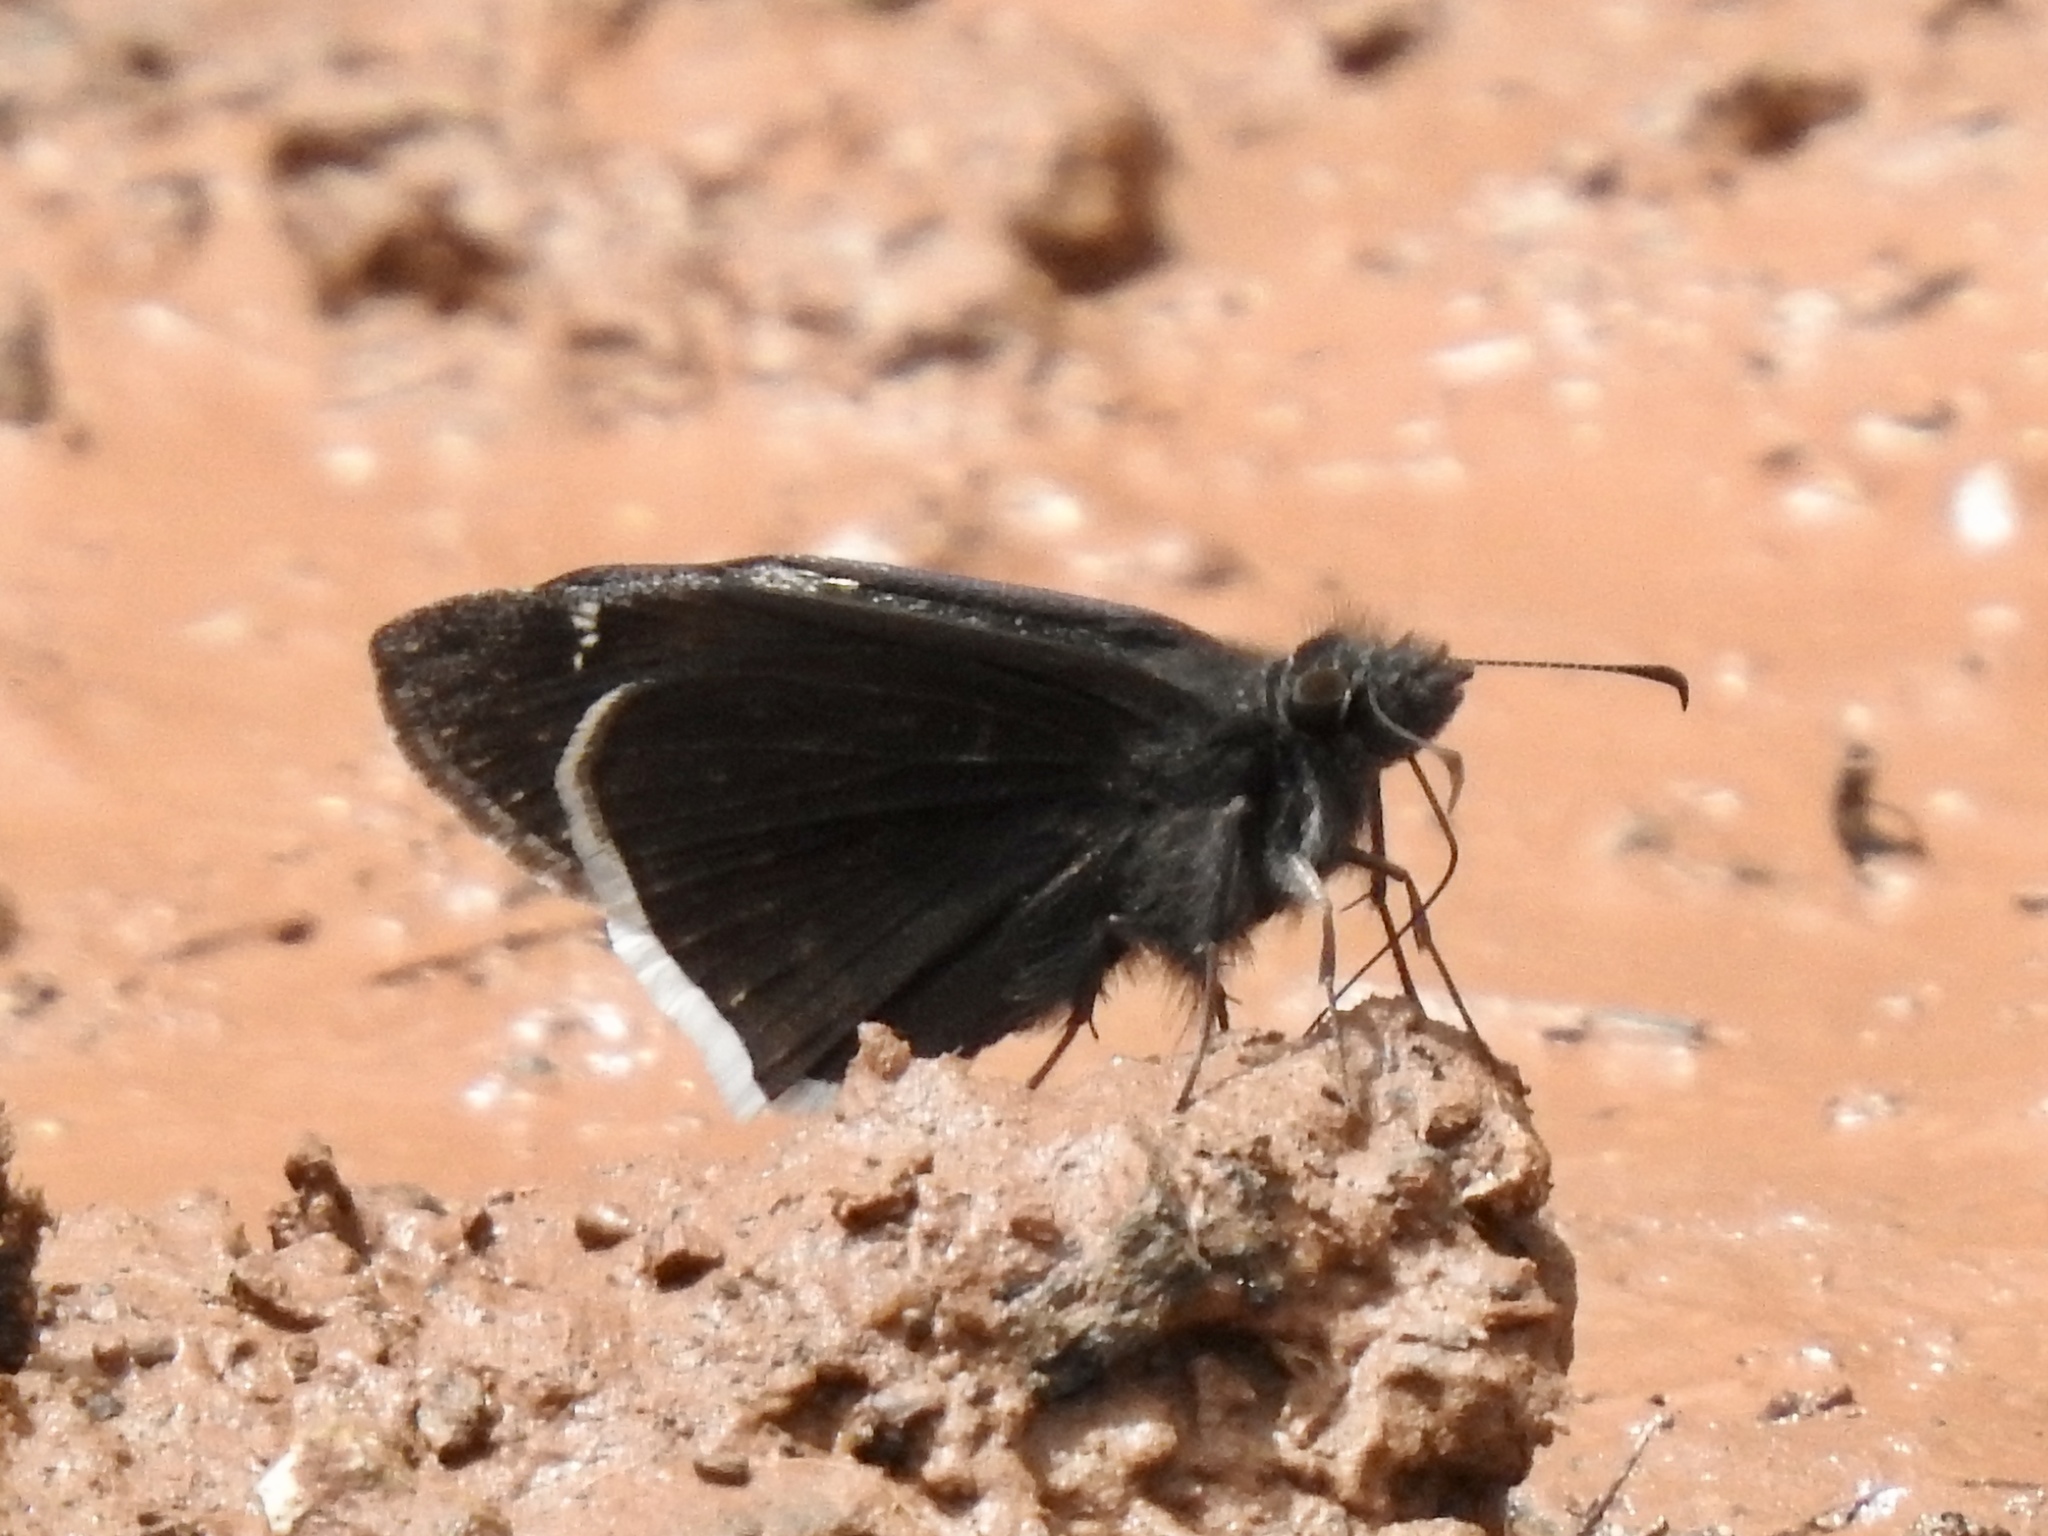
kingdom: Animalia
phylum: Arthropoda
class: Insecta
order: Lepidoptera
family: Hesperiidae
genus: Erynnis
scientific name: Erynnis funeralis
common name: Funereal duskywing
